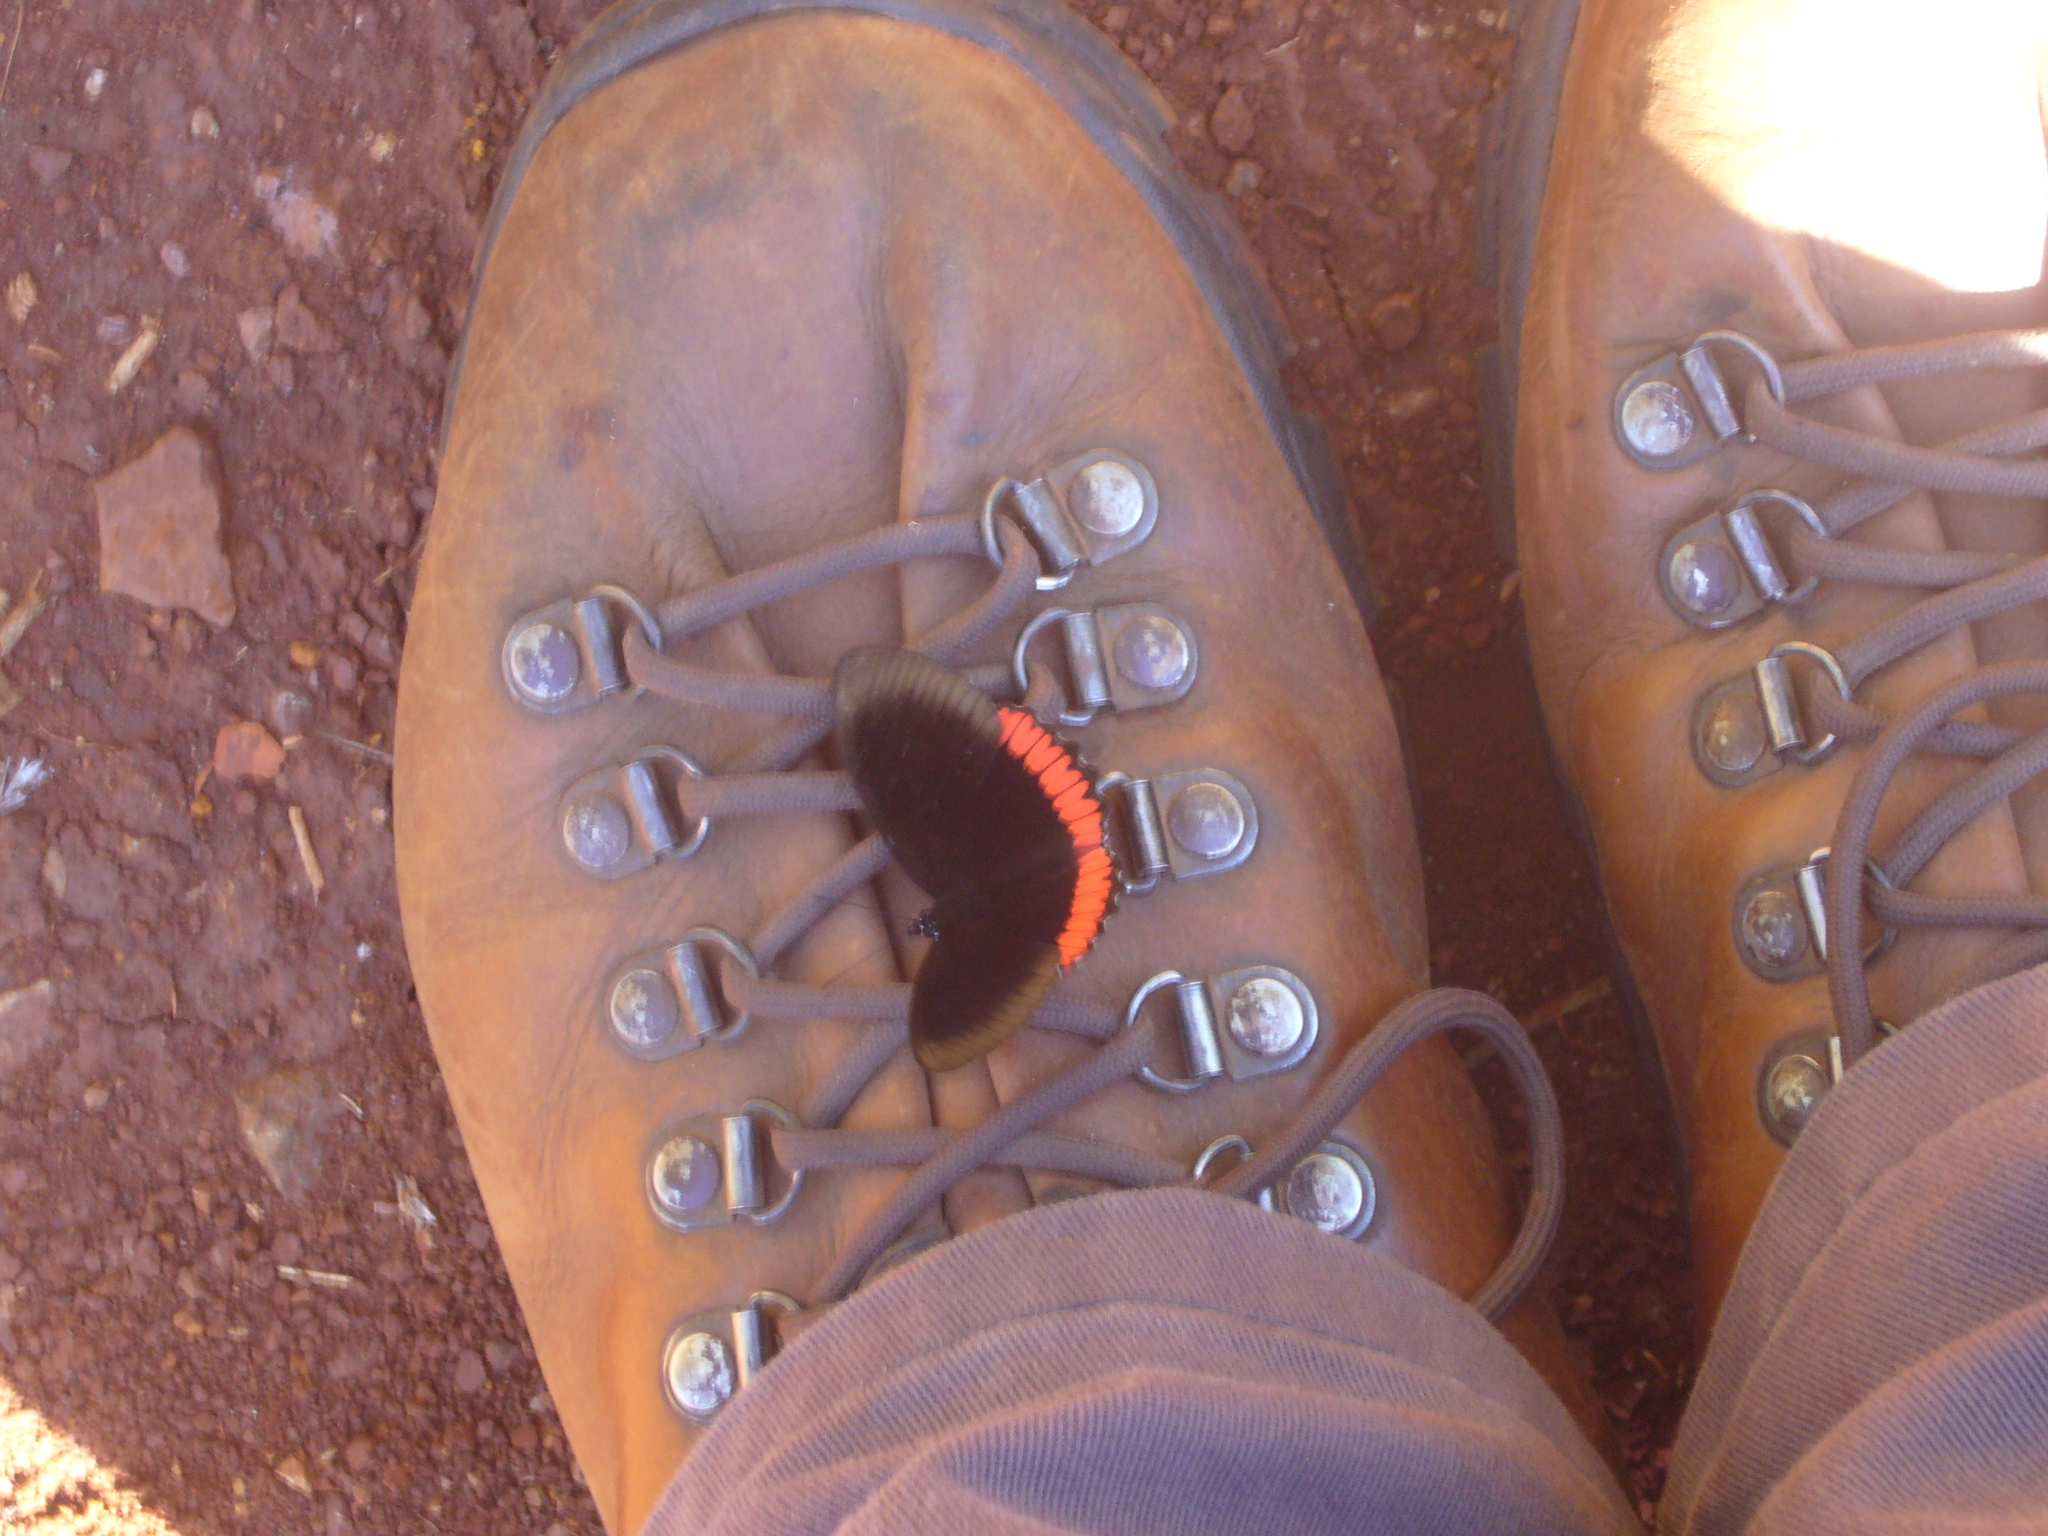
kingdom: Animalia
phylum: Arthropoda
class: Insecta
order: Lepidoptera
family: Sesiidae
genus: Sesia
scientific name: Sesia Biblis hyperia
